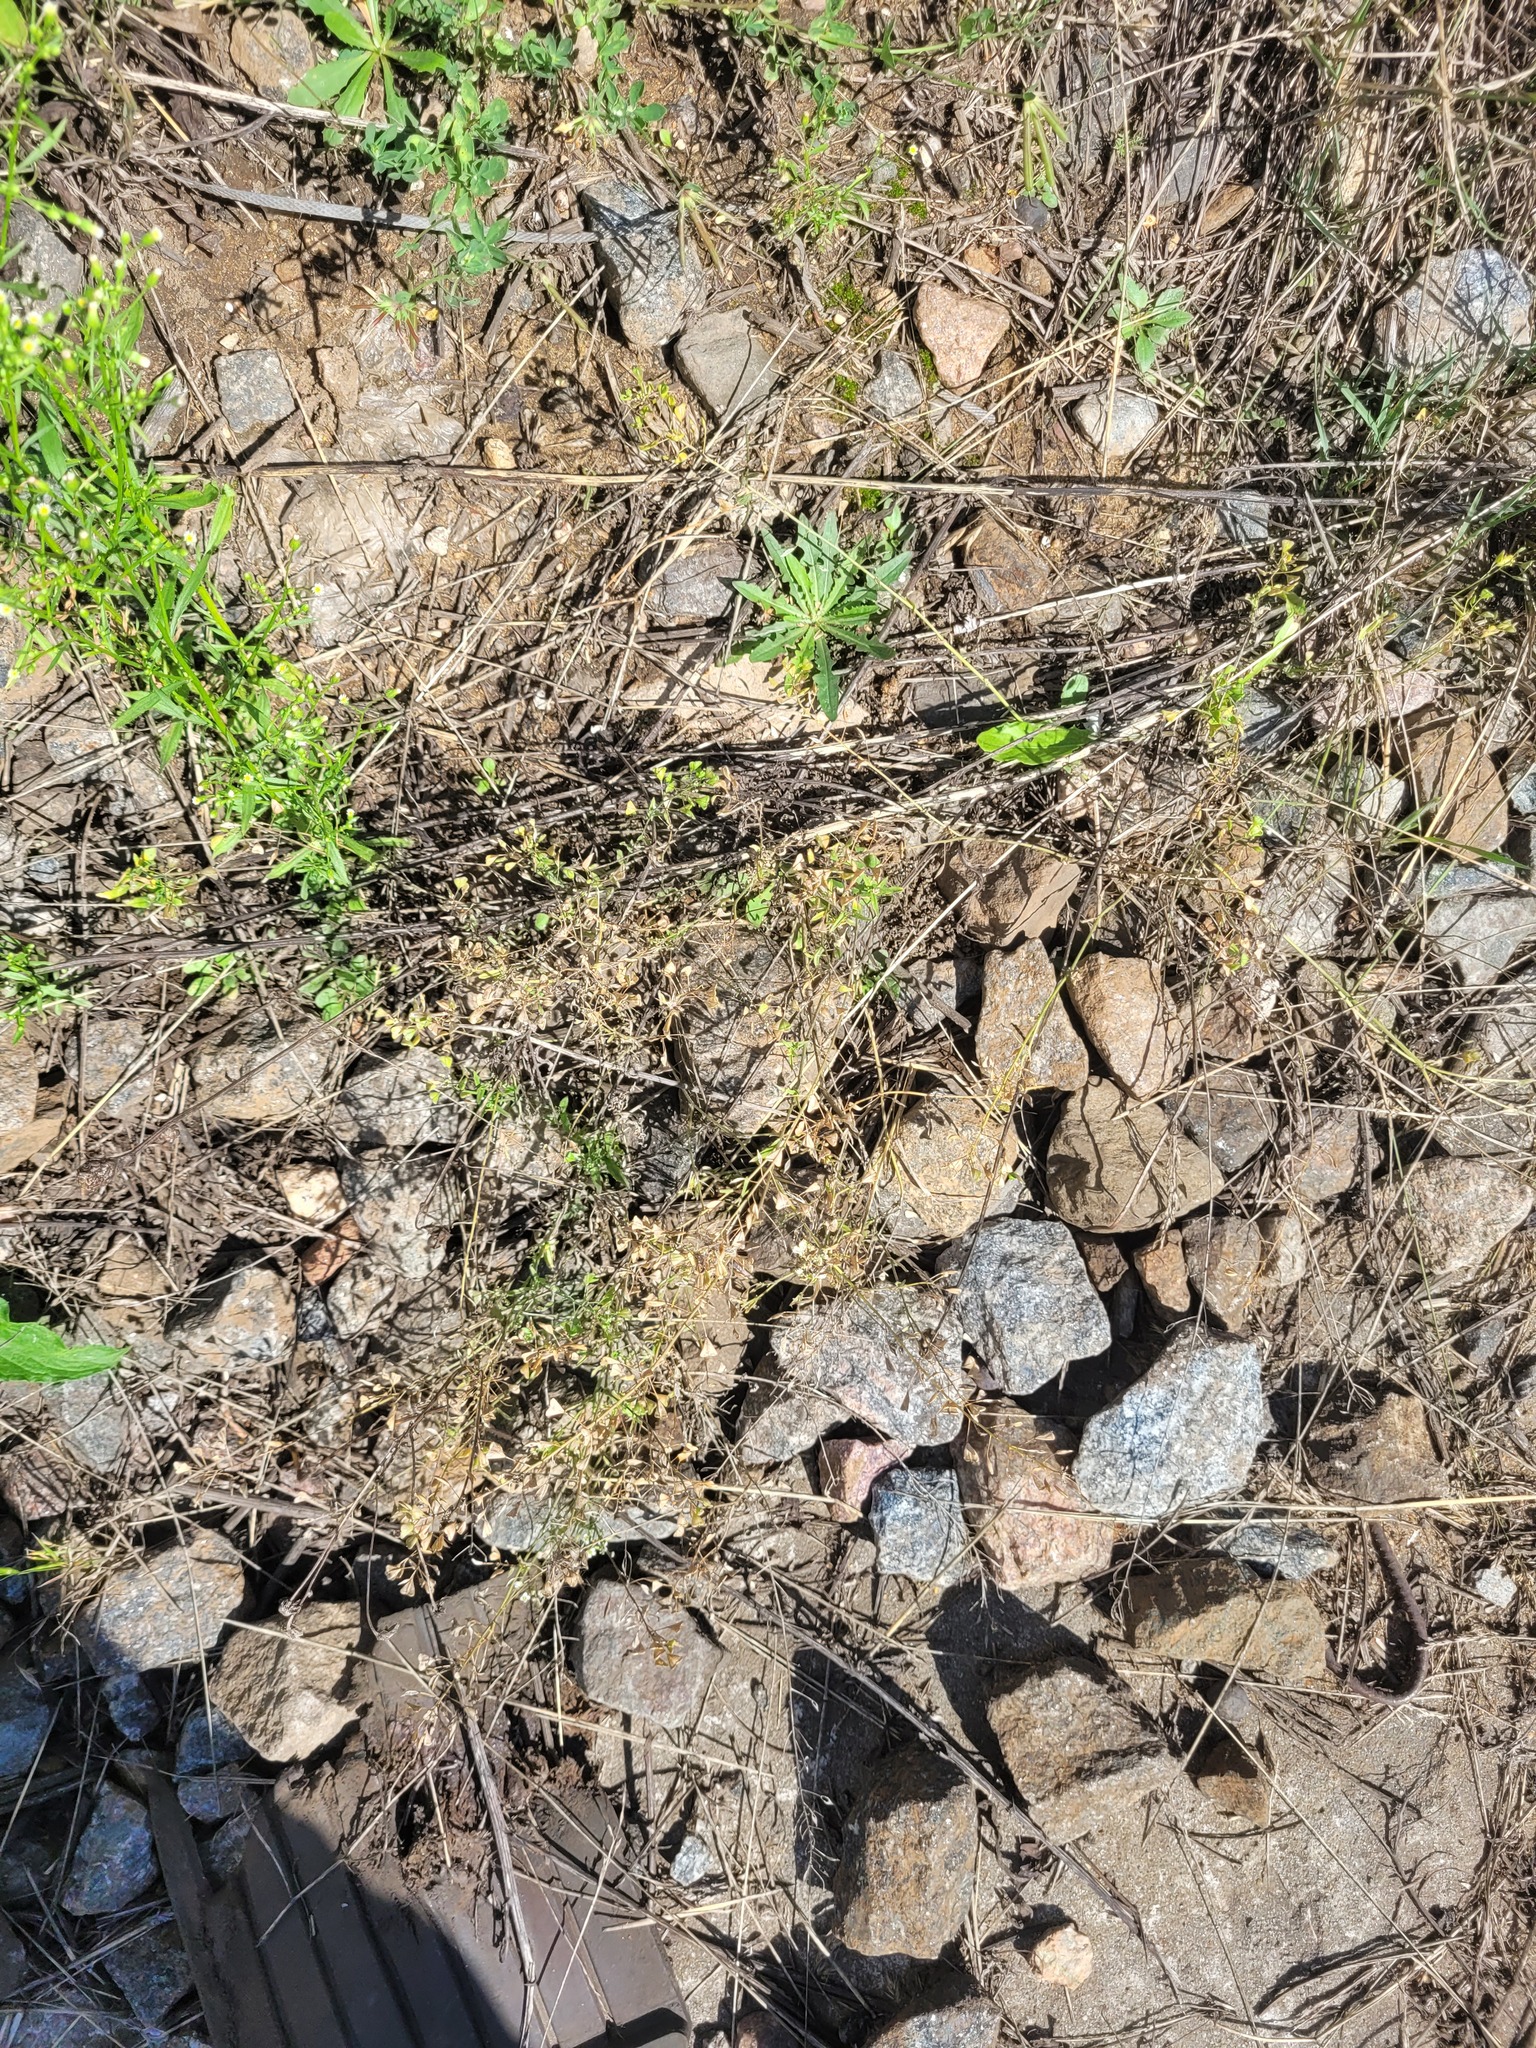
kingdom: Plantae
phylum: Tracheophyta
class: Magnoliopsida
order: Brassicales
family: Brassicaceae
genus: Capsella
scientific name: Capsella bursa-pastoris
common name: Shepherd's purse
